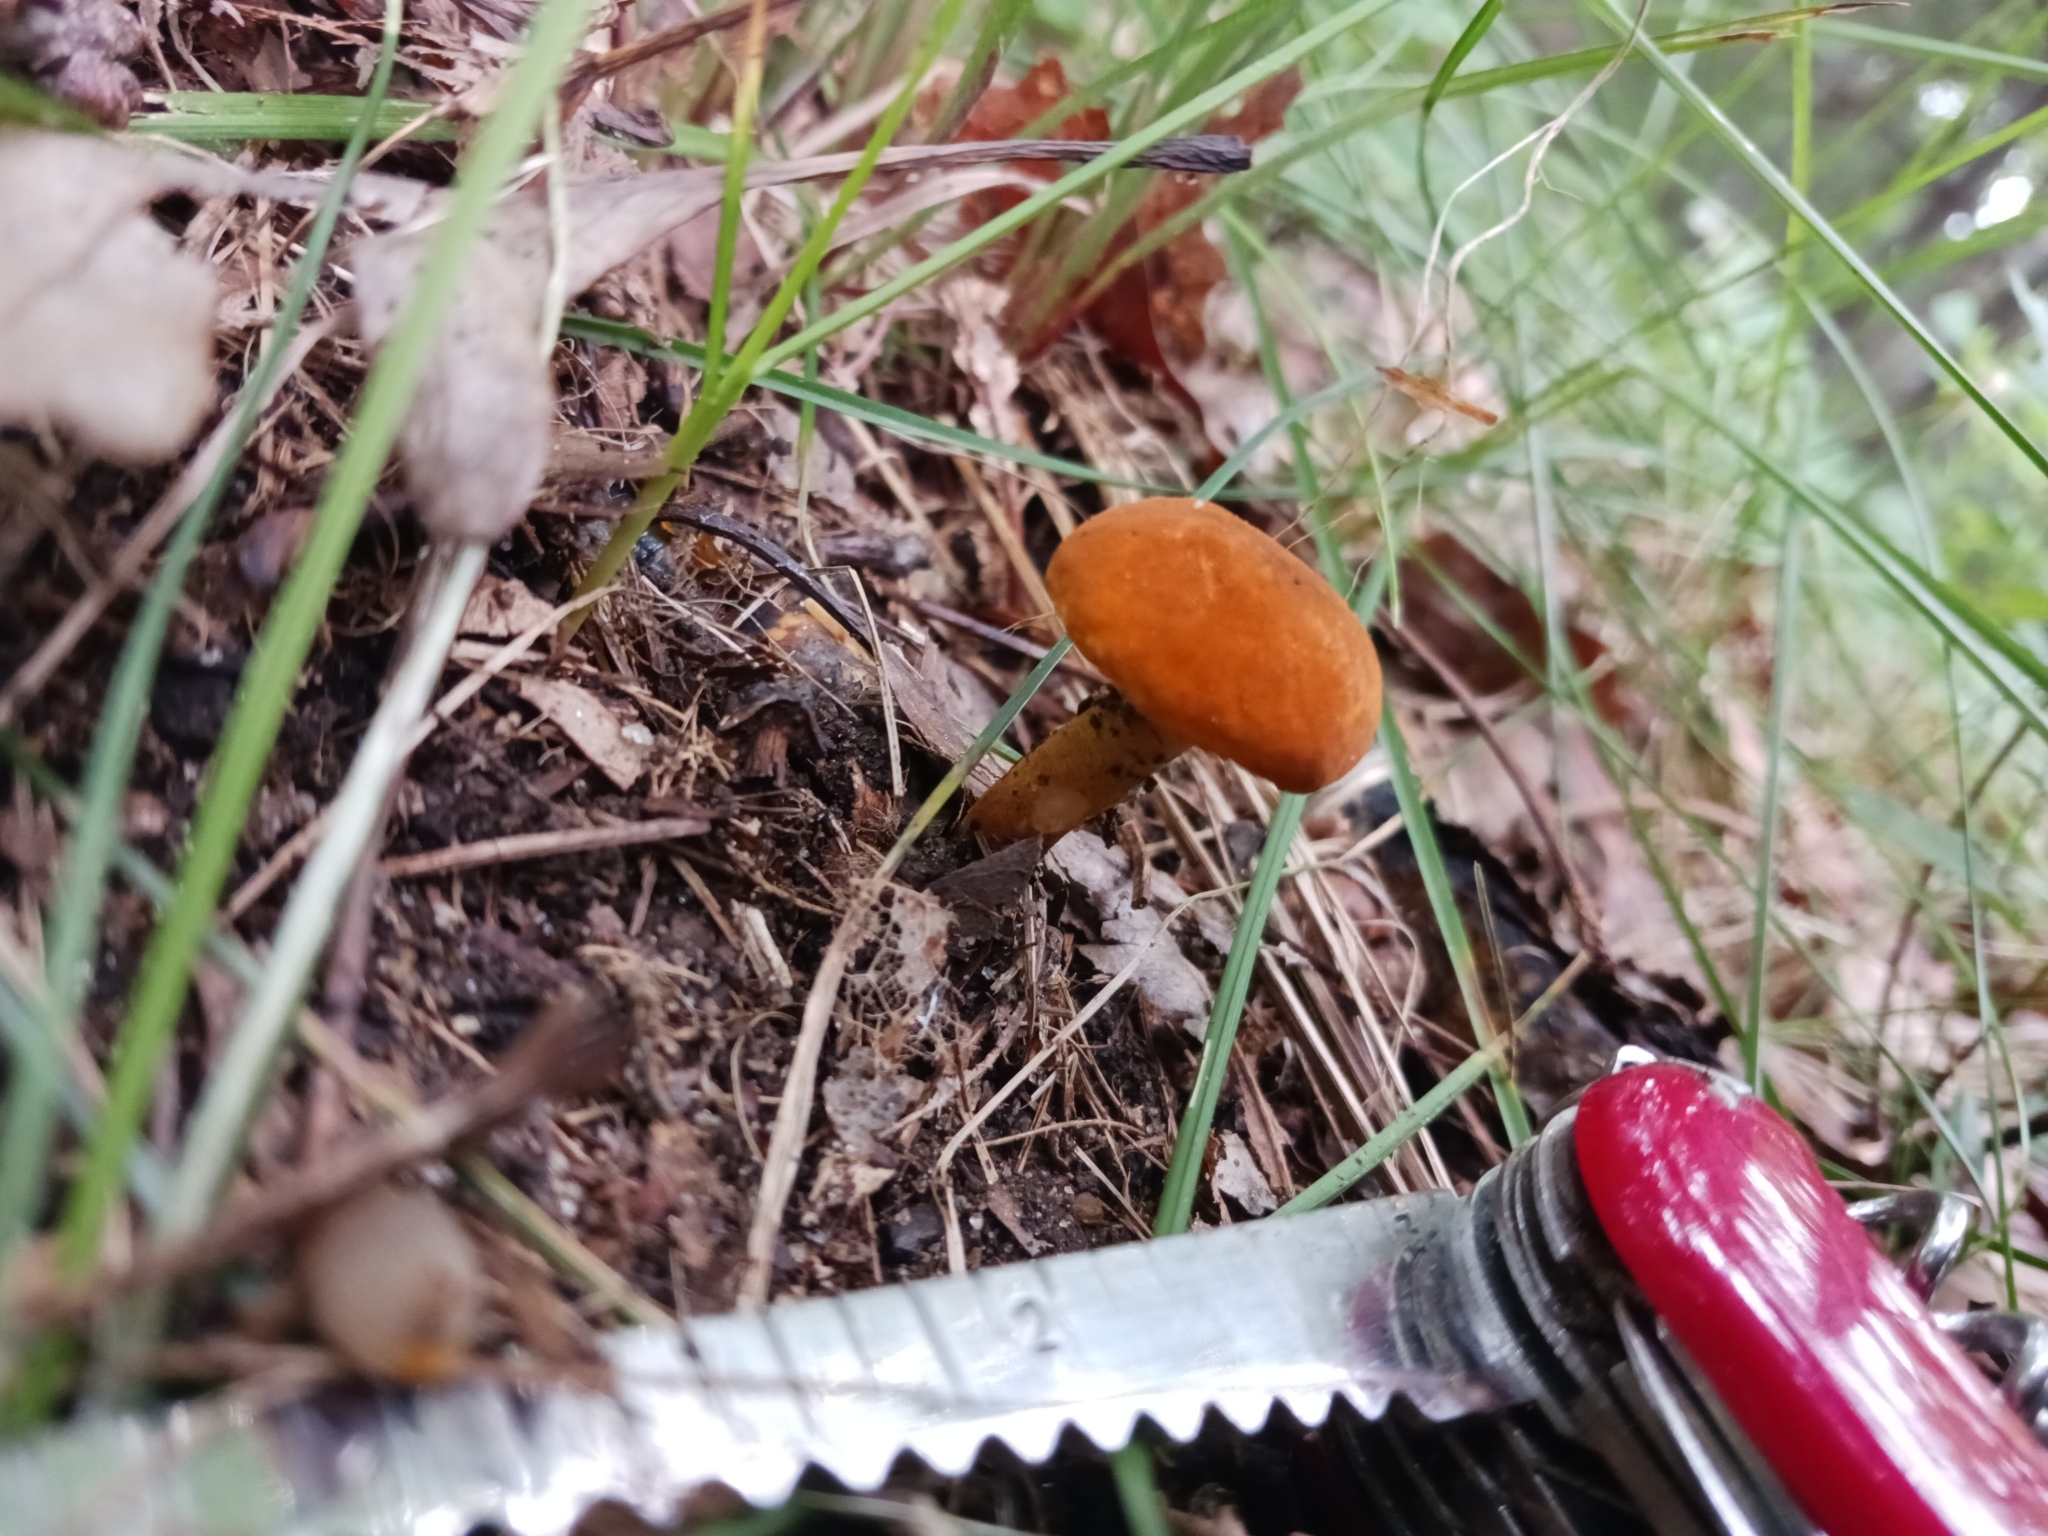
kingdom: Fungi
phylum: Basidiomycota
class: Agaricomycetes
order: Boletales
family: Gyroporaceae
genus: Gyroporus
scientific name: Gyroporus borealis
